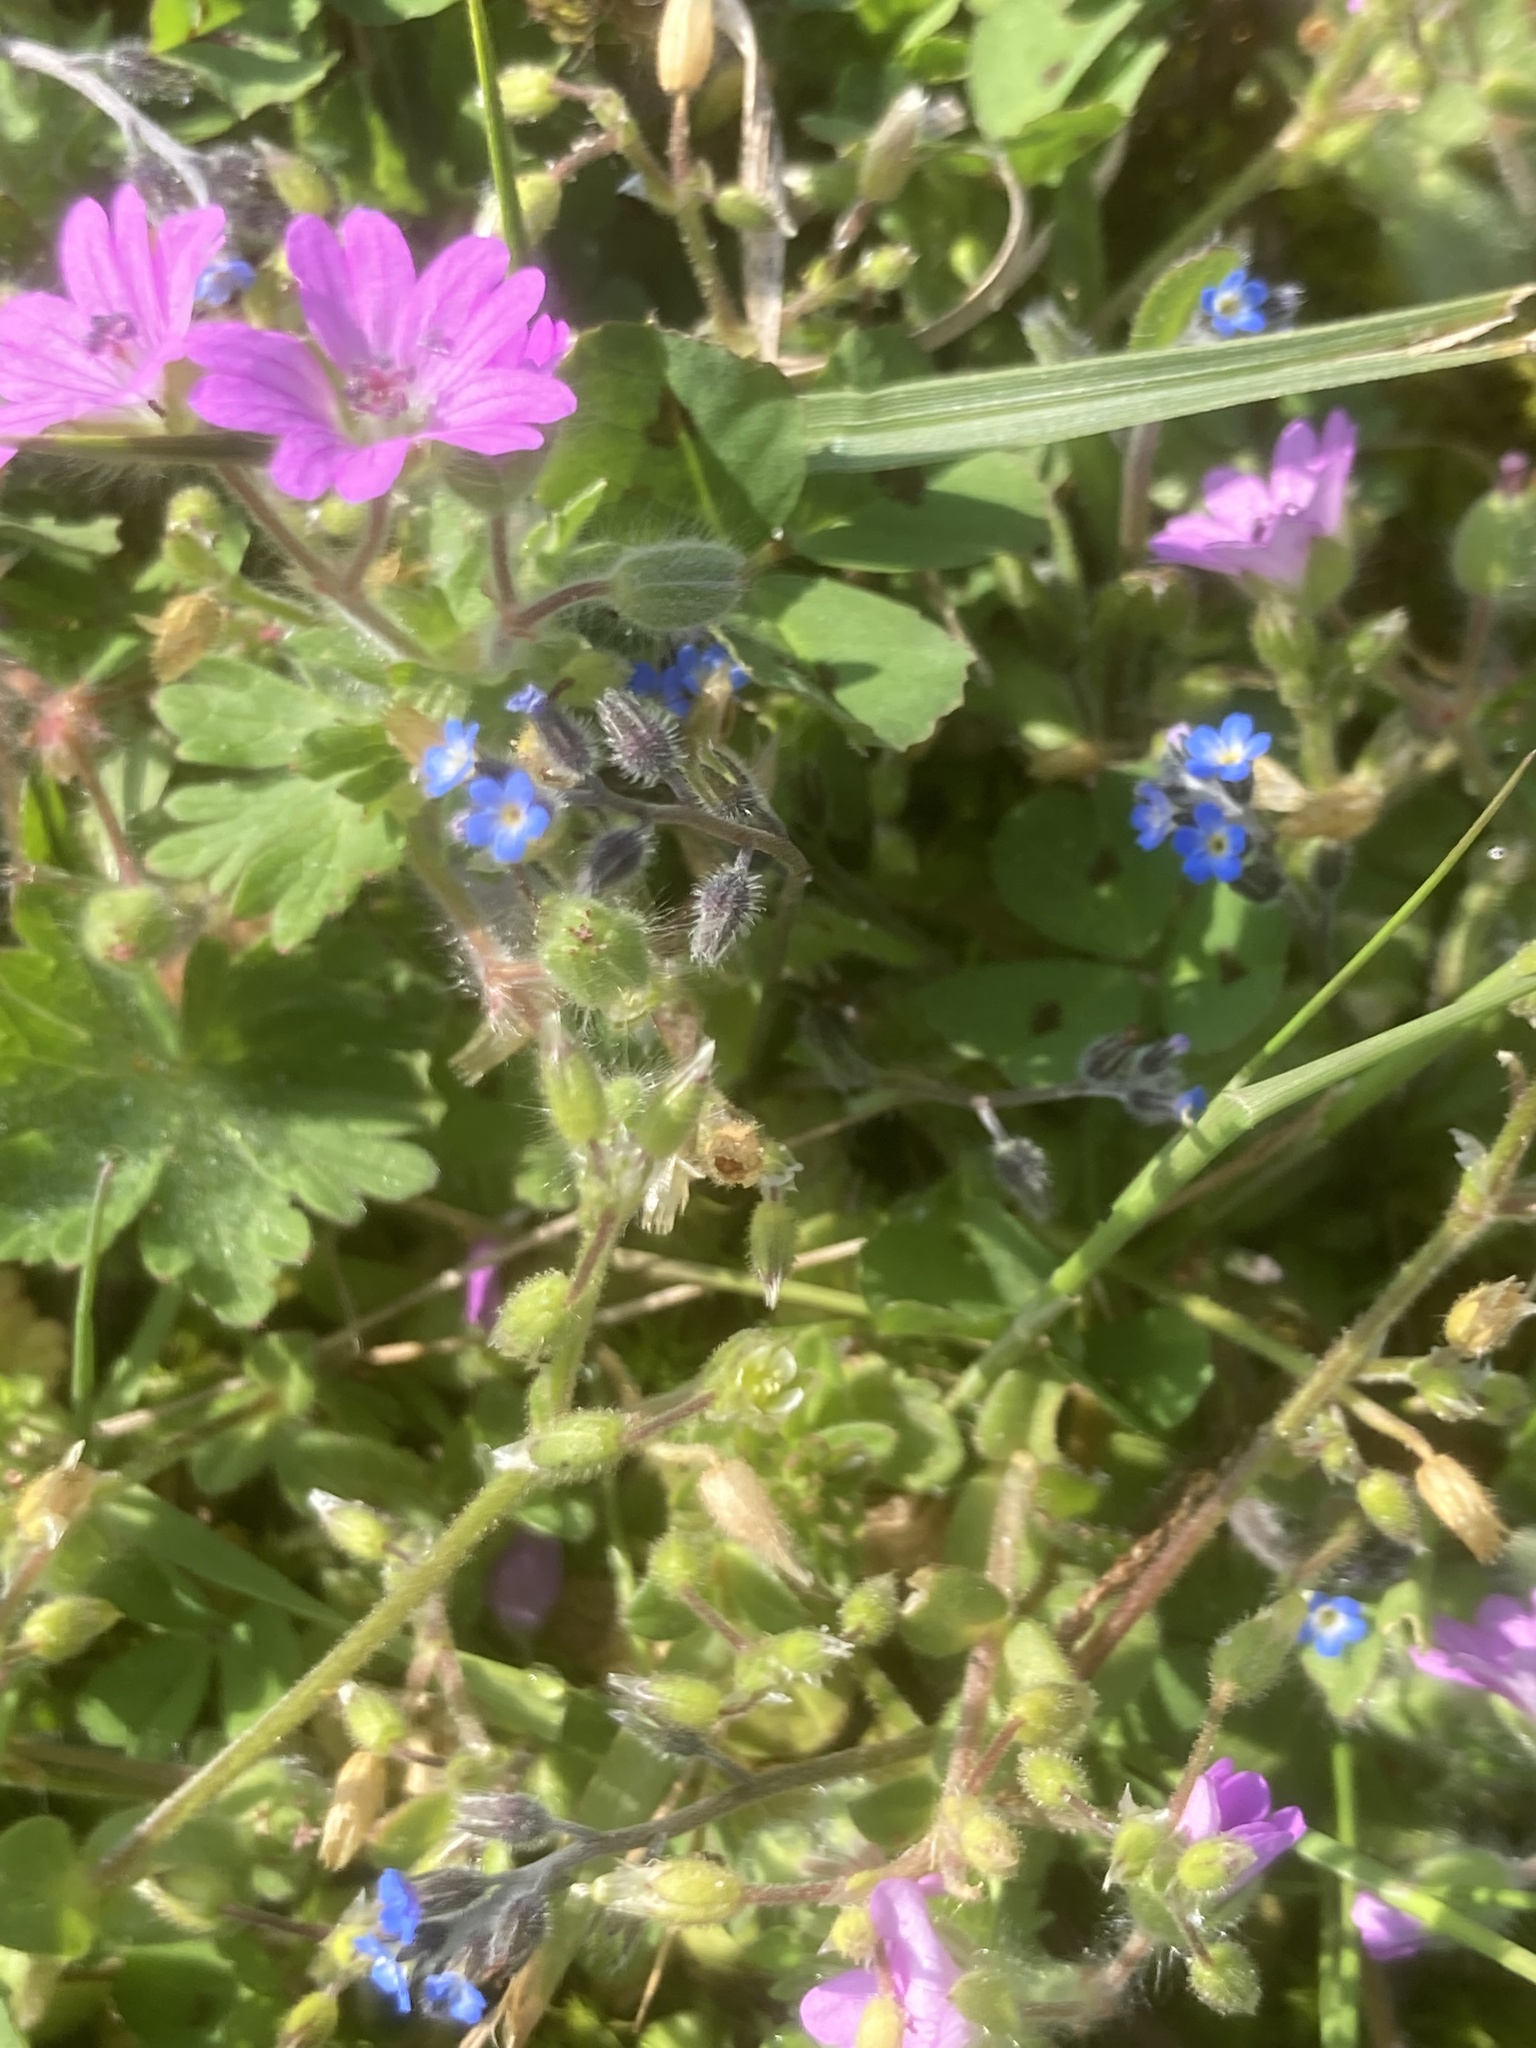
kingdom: Plantae
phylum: Tracheophyta
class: Magnoliopsida
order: Geraniales
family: Geraniaceae
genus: Geranium
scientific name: Geranium molle
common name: Dove's-foot crane's-bill
